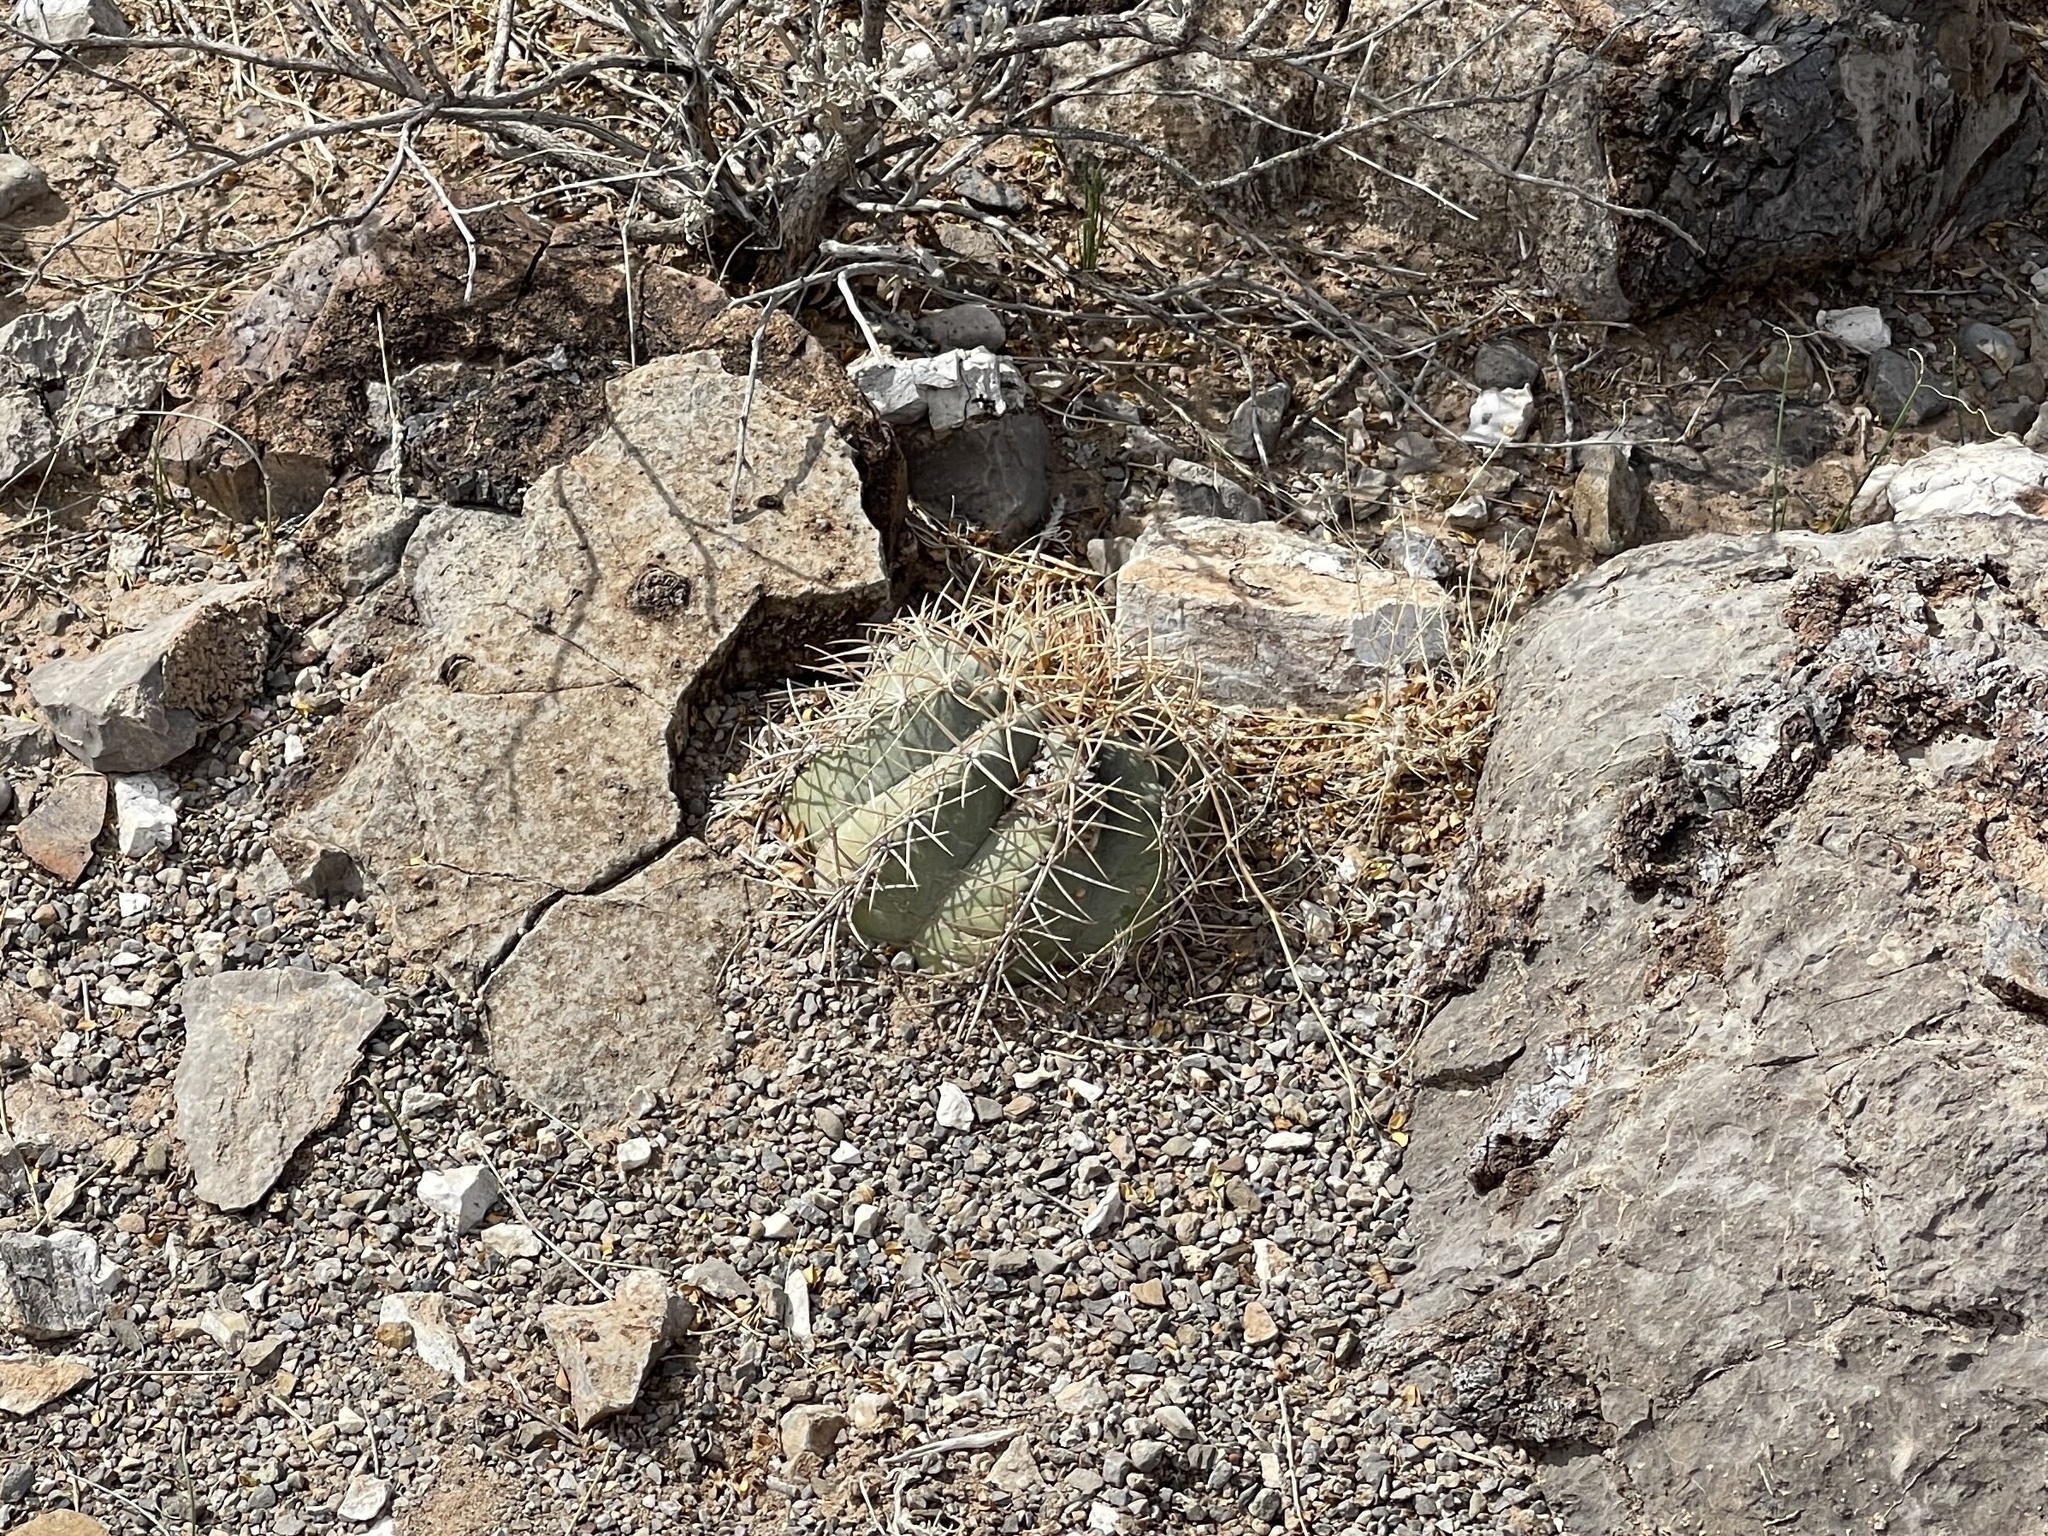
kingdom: Plantae
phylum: Tracheophyta
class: Magnoliopsida
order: Caryophyllales
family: Cactaceae
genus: Echinocactus
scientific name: Echinocactus horizonthalonius
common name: Devilshead
